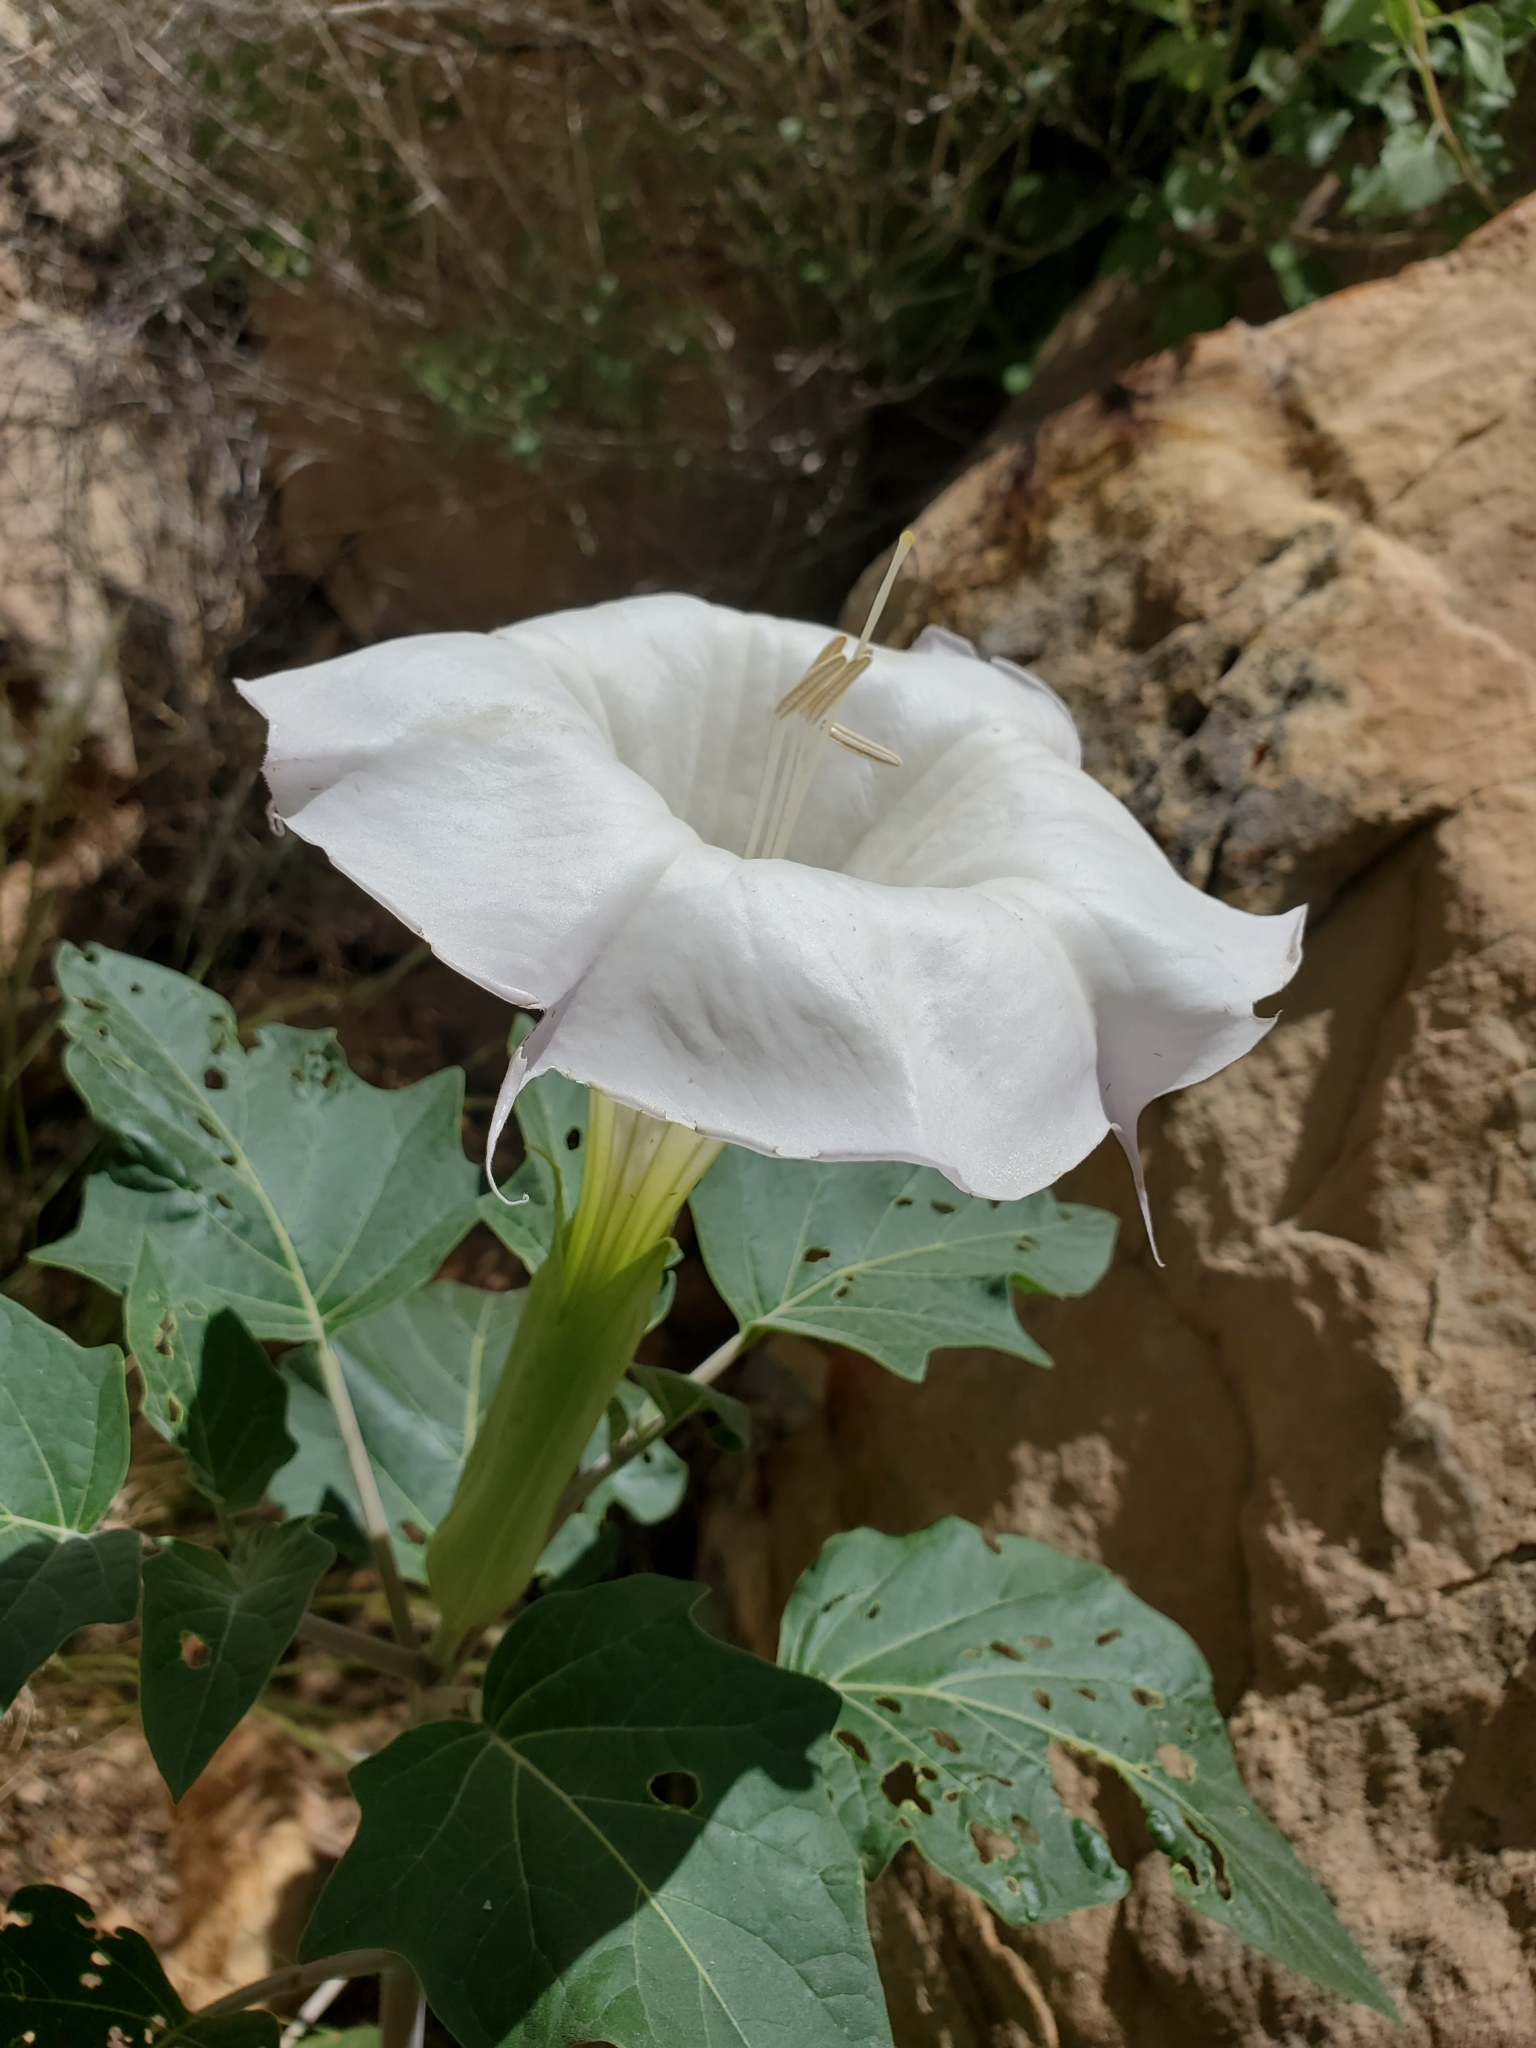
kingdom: Plantae
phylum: Tracheophyta
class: Magnoliopsida
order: Solanales
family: Solanaceae
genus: Datura
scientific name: Datura wrightii
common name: Sacred thorn-apple
